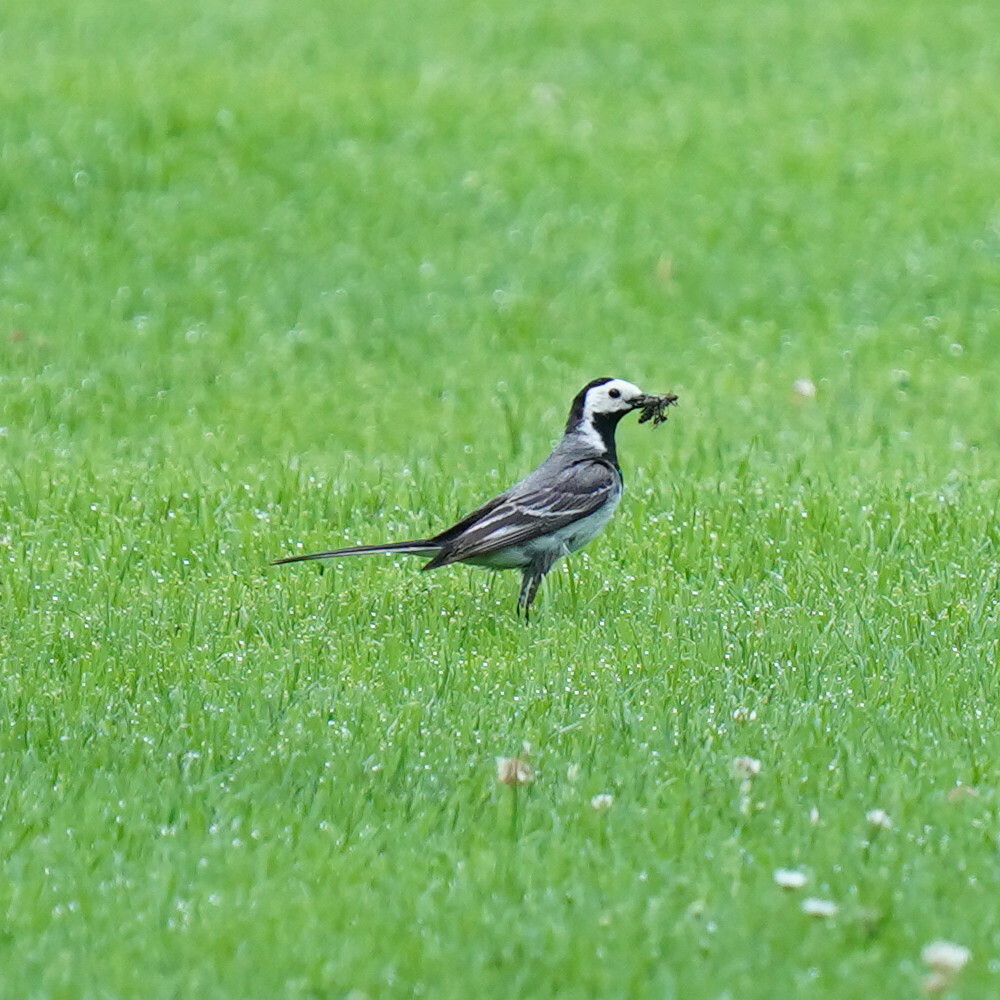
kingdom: Animalia
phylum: Chordata
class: Aves
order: Passeriformes
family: Motacillidae
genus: Motacilla
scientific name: Motacilla alba
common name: White wagtail
